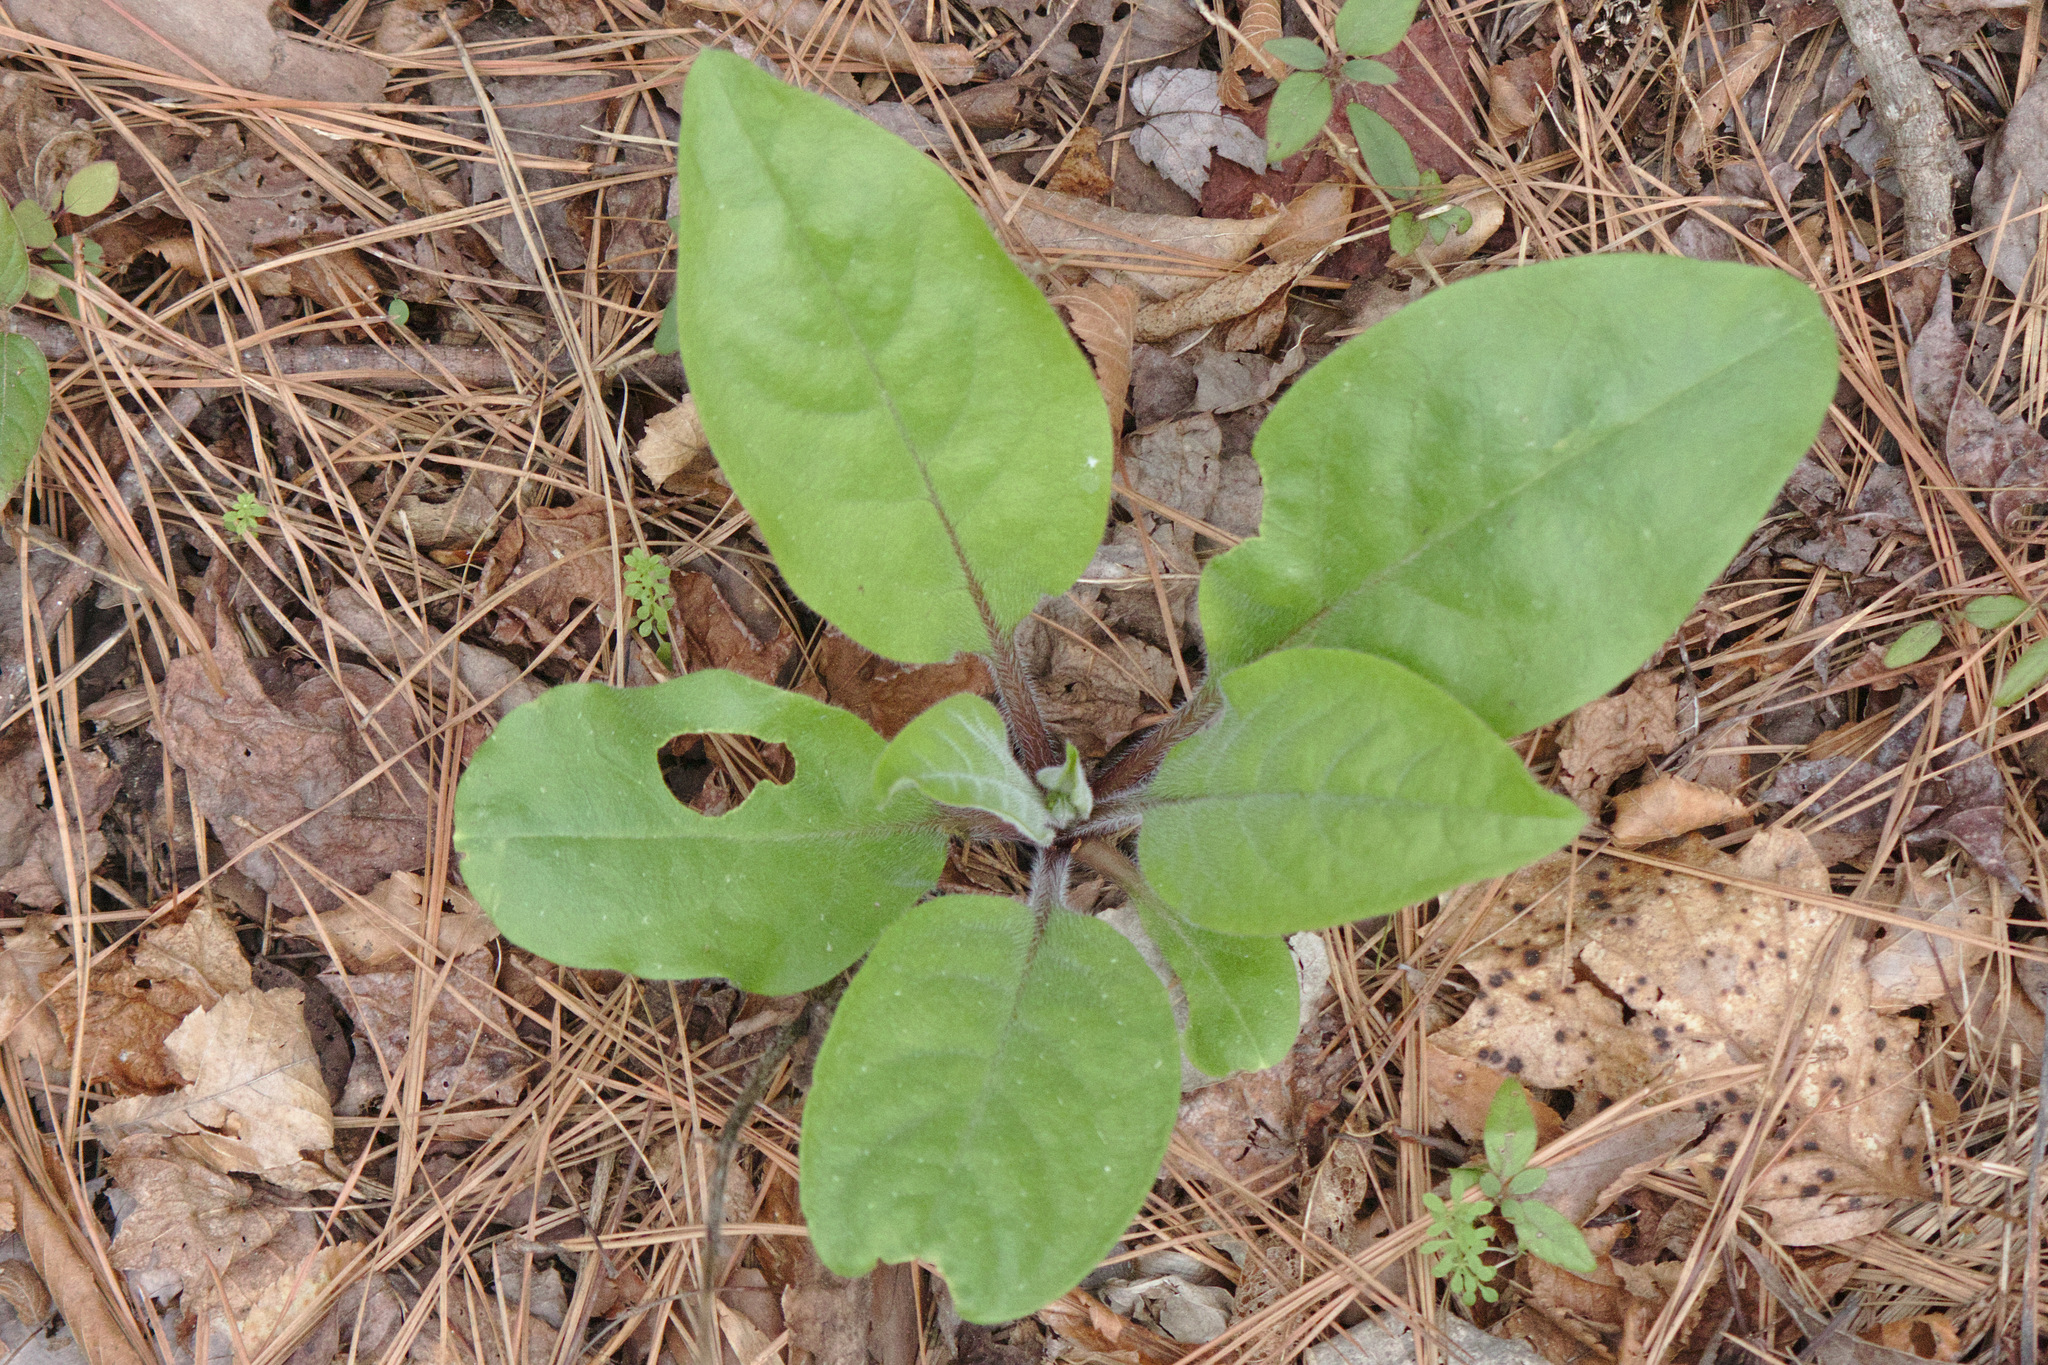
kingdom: Plantae
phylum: Tracheophyta
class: Magnoliopsida
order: Boraginales
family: Boraginaceae
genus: Andersonglossum
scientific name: Andersonglossum virginianum
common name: Wild comfrey
